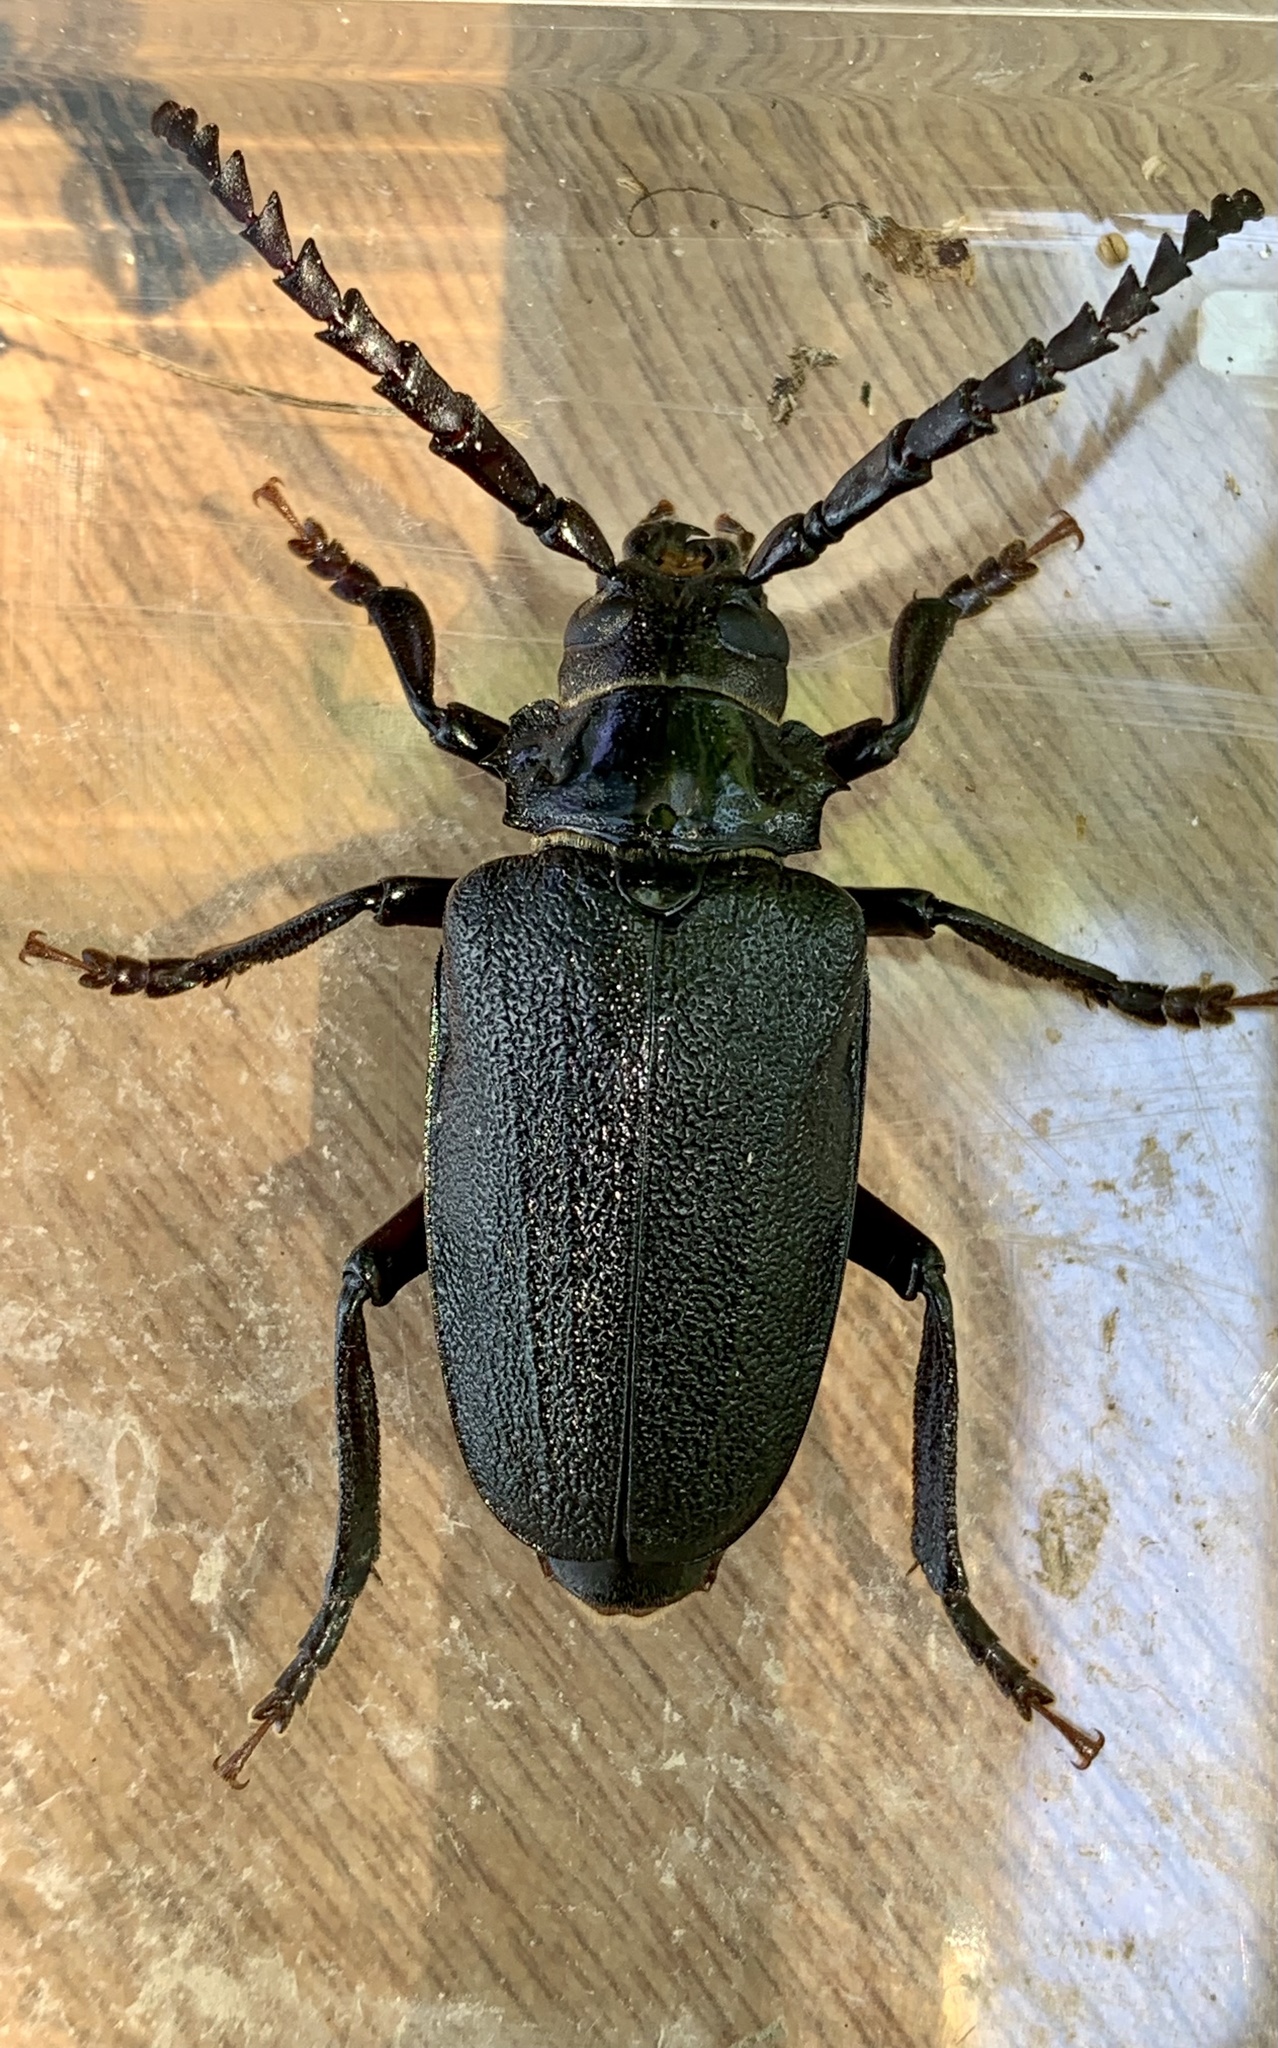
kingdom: Animalia
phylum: Arthropoda
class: Insecta
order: Coleoptera
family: Cerambycidae
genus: Prionus
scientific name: Prionus laticollis
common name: Broad necked prionus
